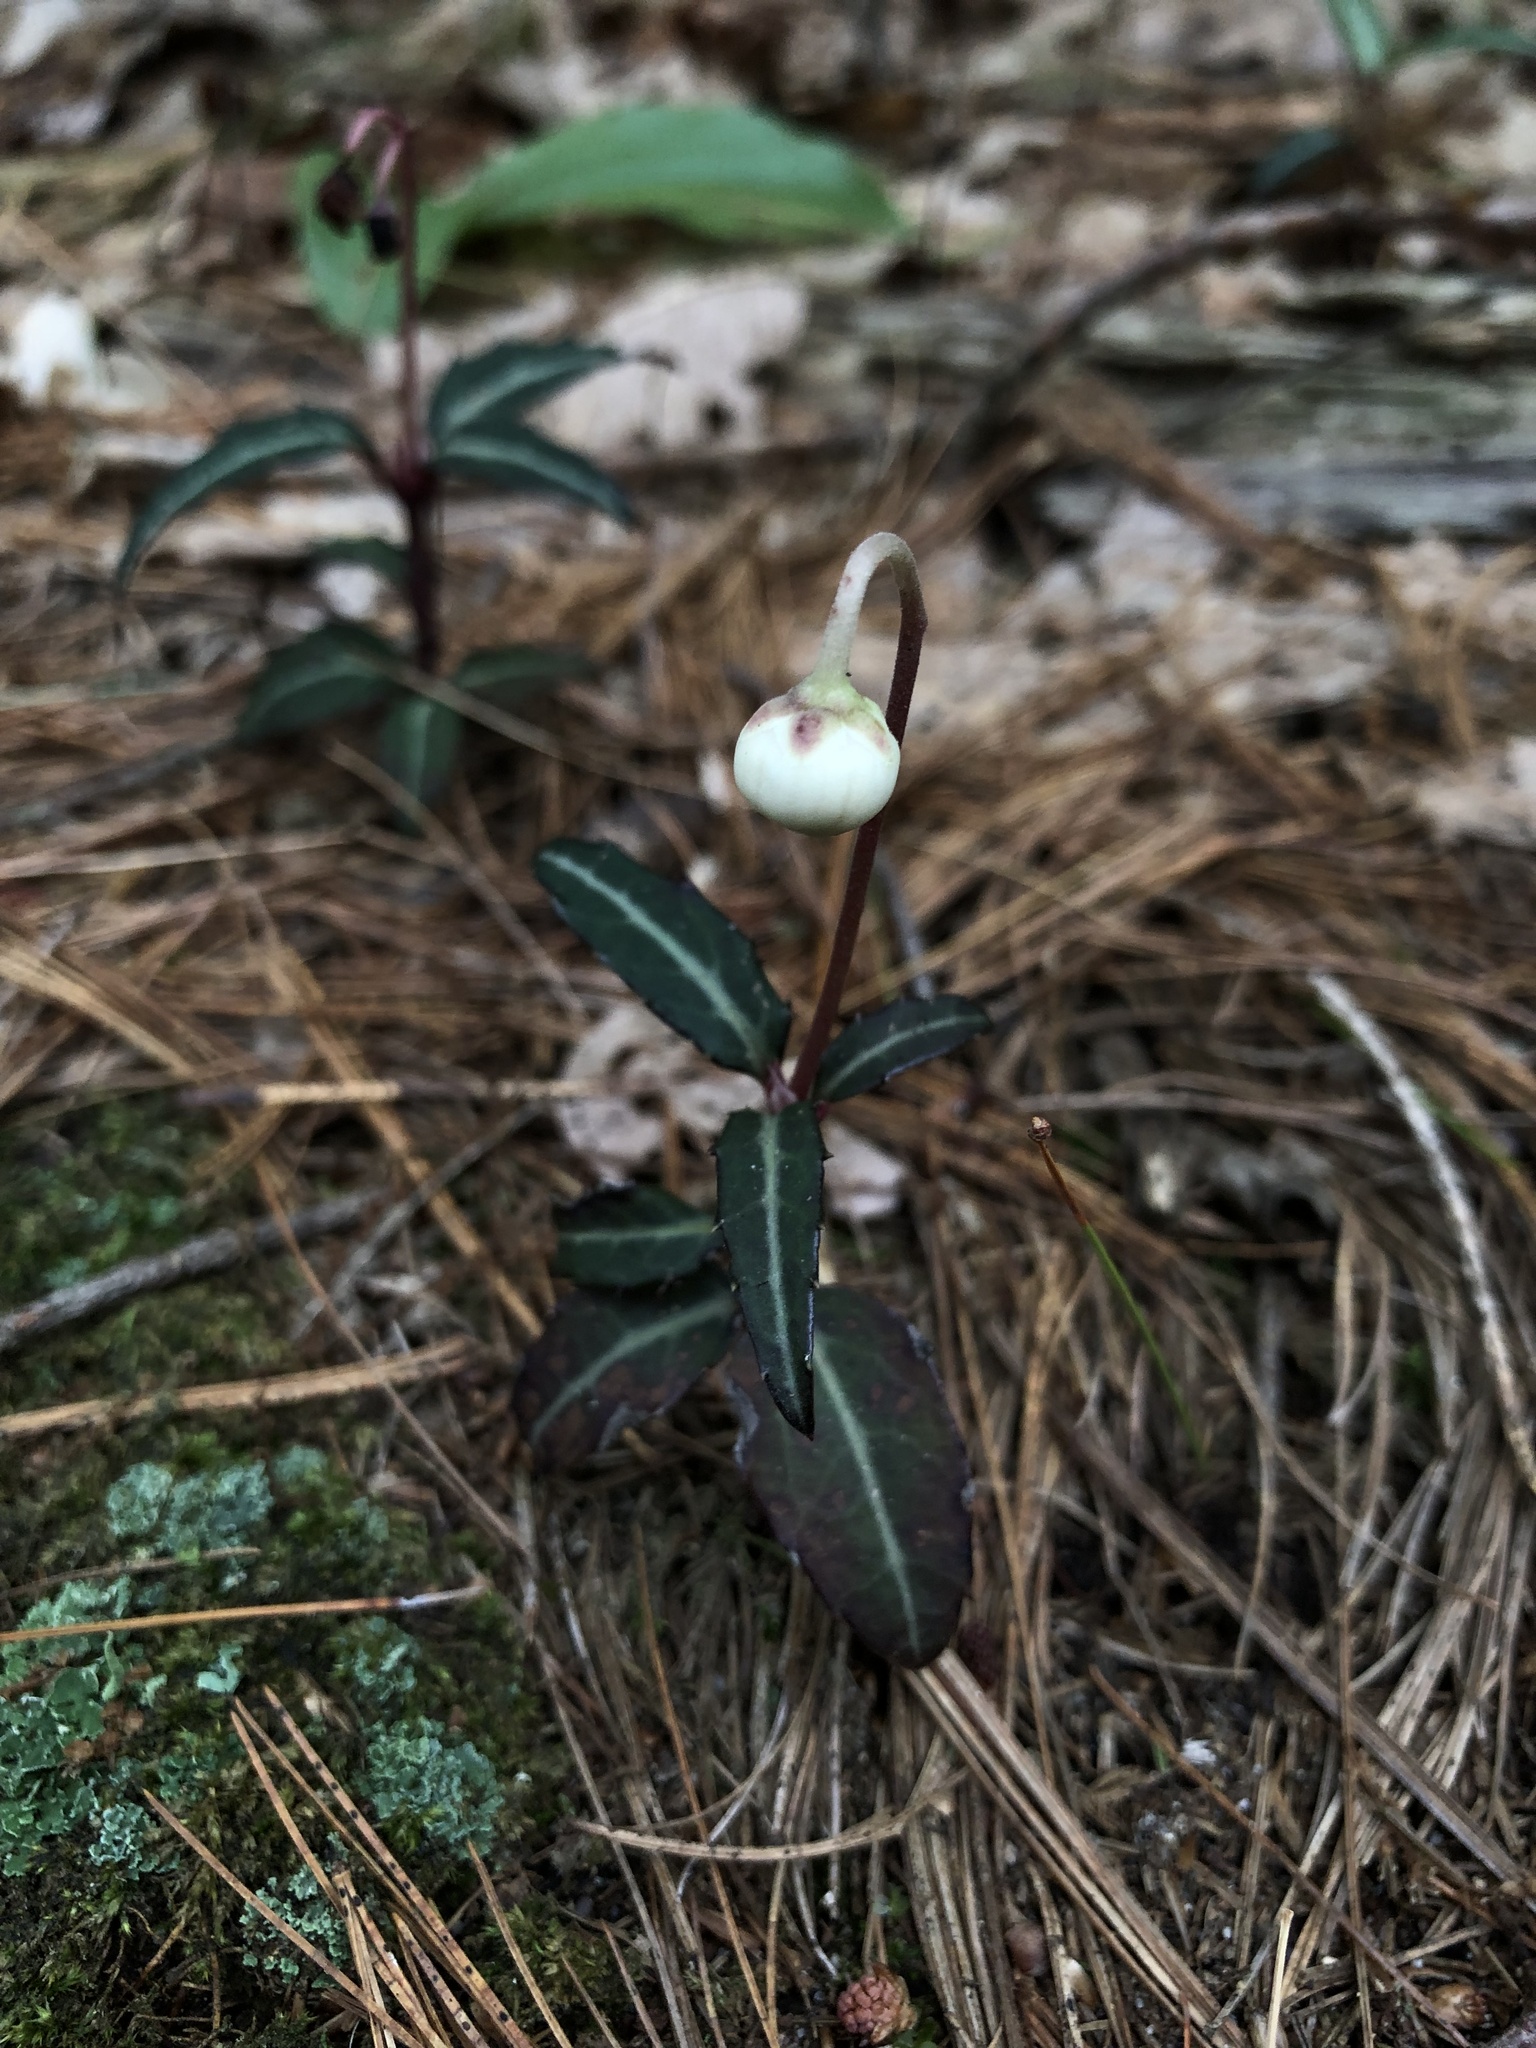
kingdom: Plantae
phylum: Tracheophyta
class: Magnoliopsida
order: Ericales
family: Ericaceae
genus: Chimaphila
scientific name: Chimaphila maculata
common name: Spotted pipsissewa
